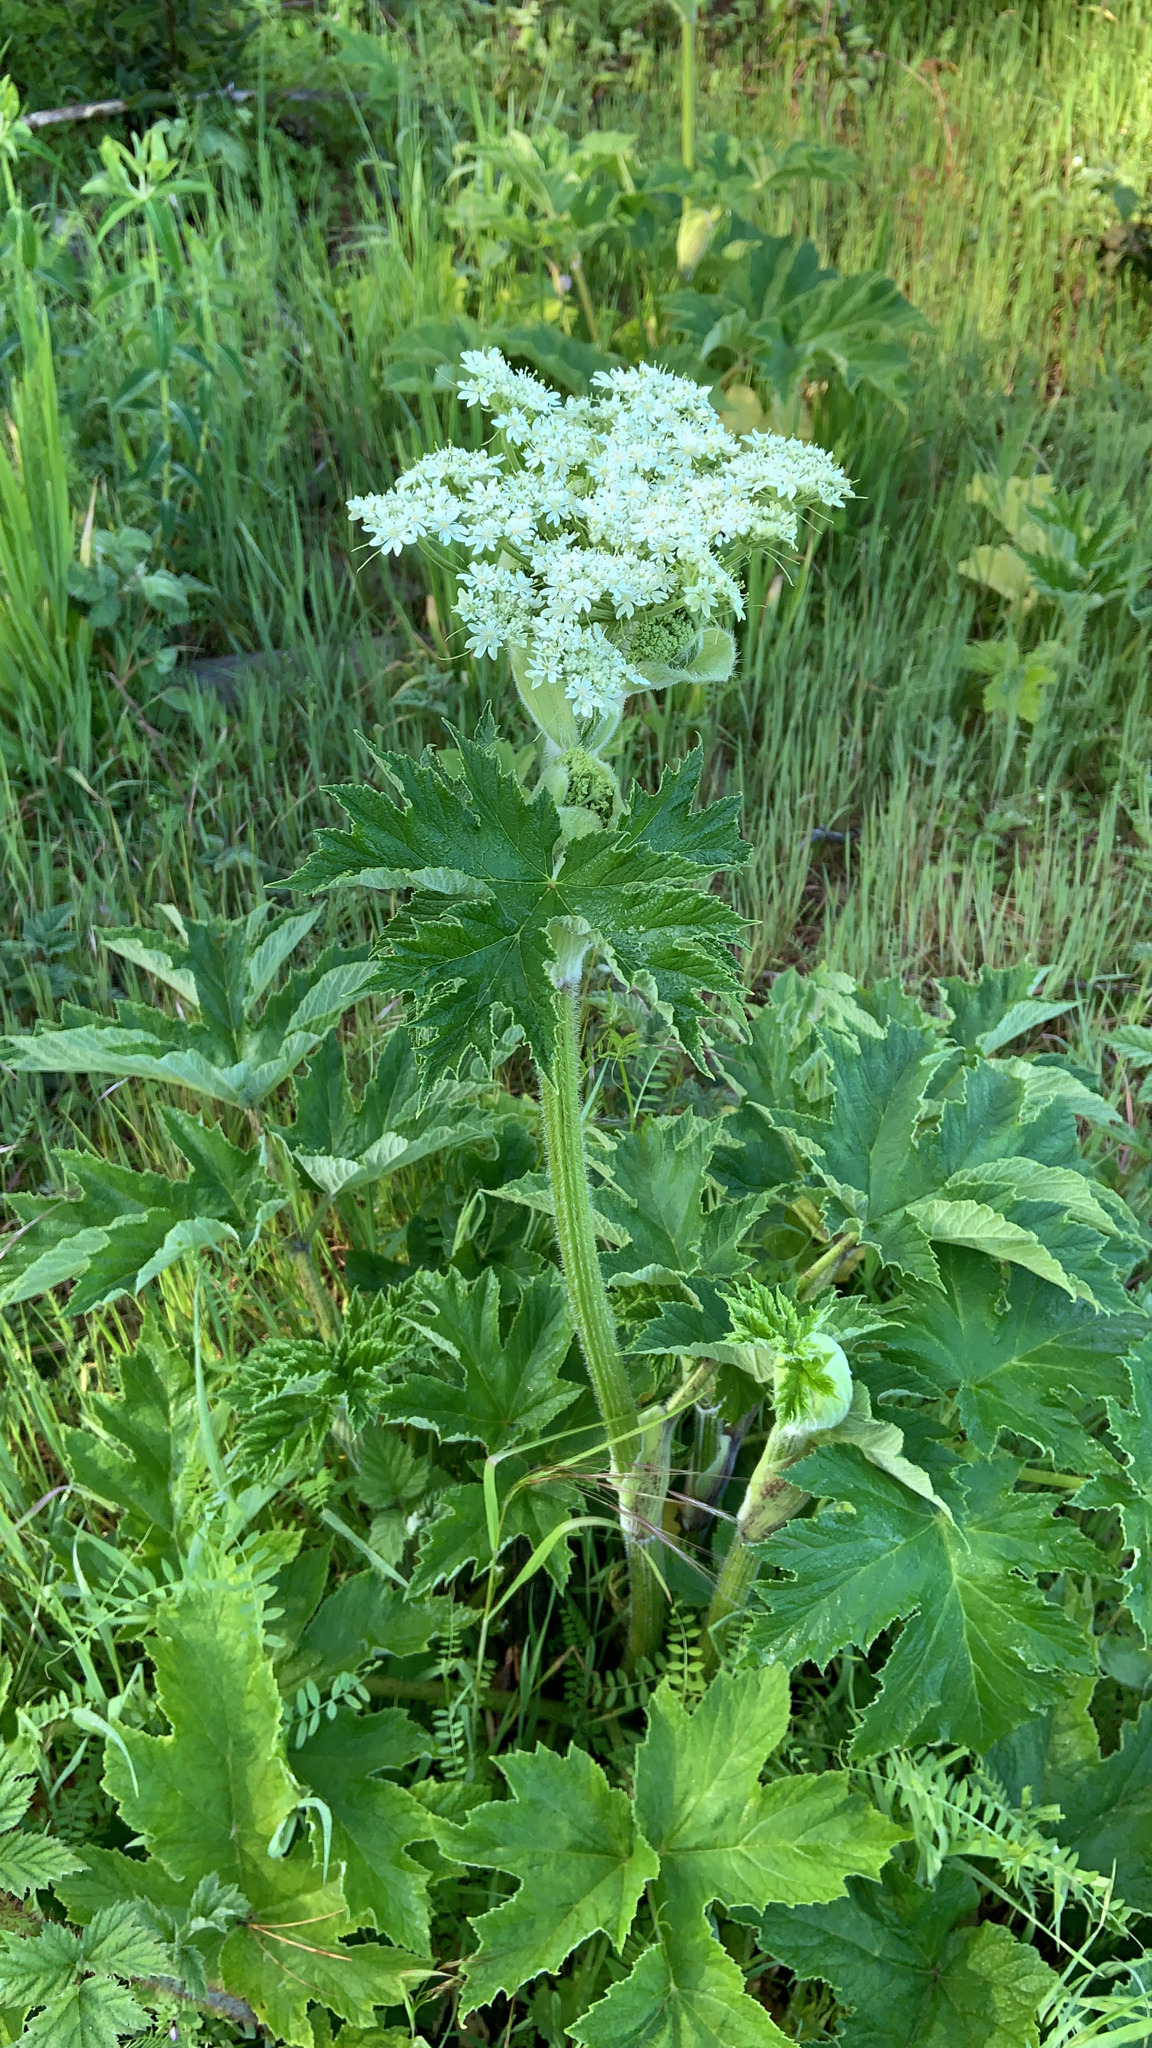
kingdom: Plantae
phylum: Tracheophyta
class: Magnoliopsida
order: Apiales
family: Apiaceae
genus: Heracleum
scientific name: Heracleum maximum
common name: American cow parsnip
